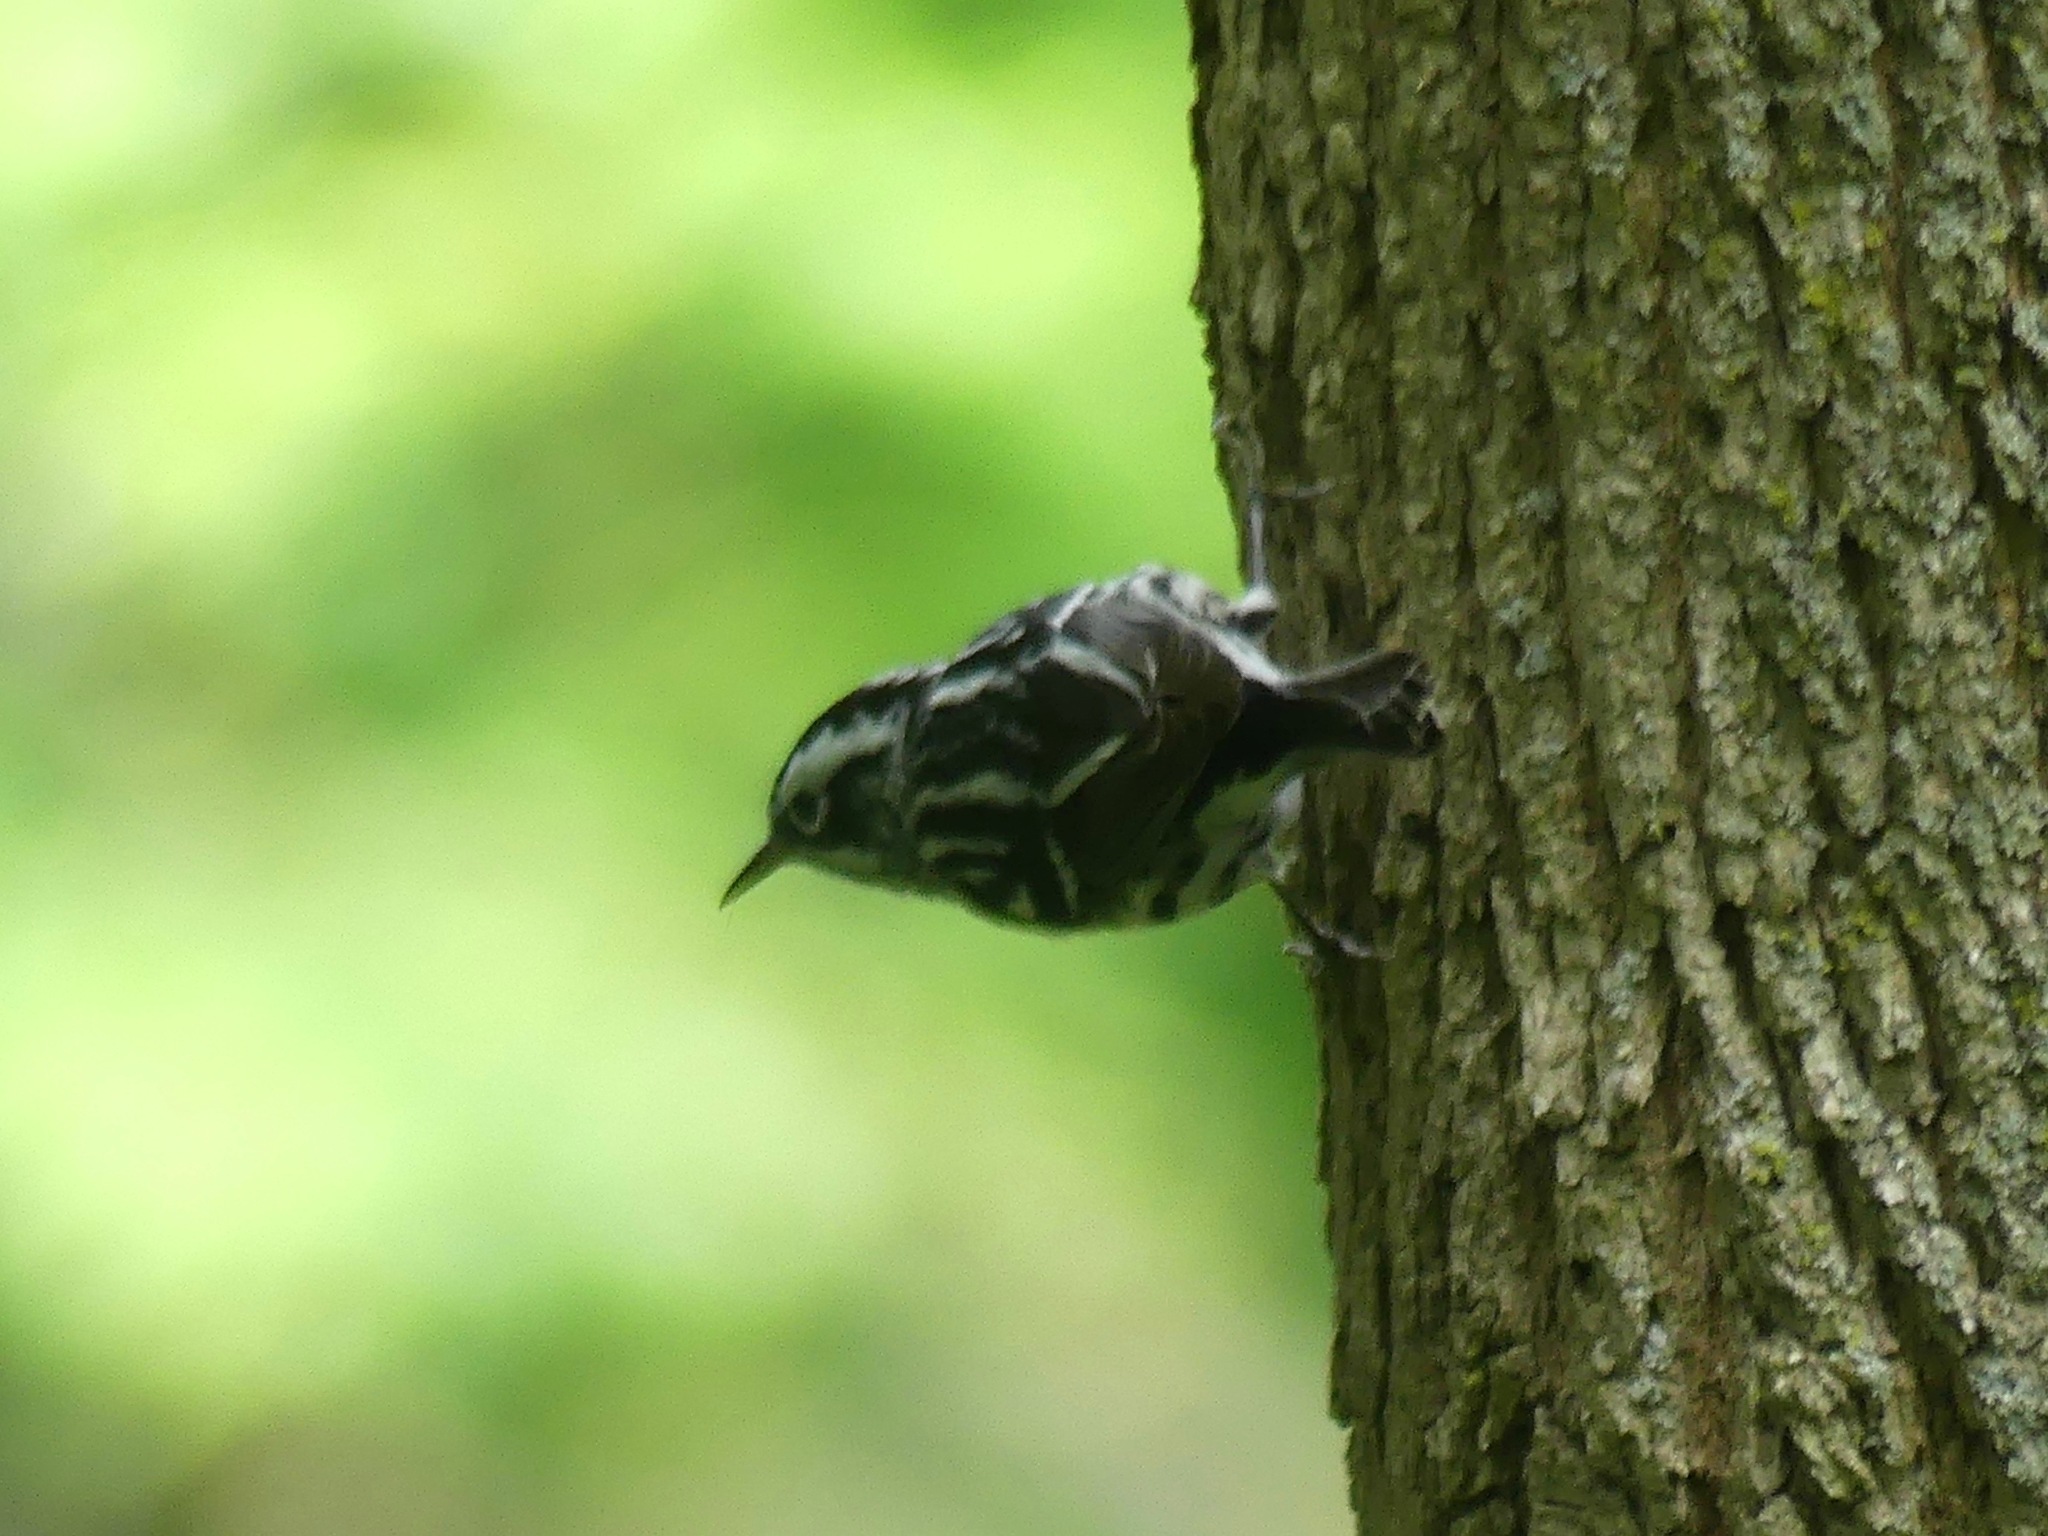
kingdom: Animalia
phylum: Chordata
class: Aves
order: Passeriformes
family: Parulidae
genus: Mniotilta
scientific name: Mniotilta varia
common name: Black-and-white warbler
